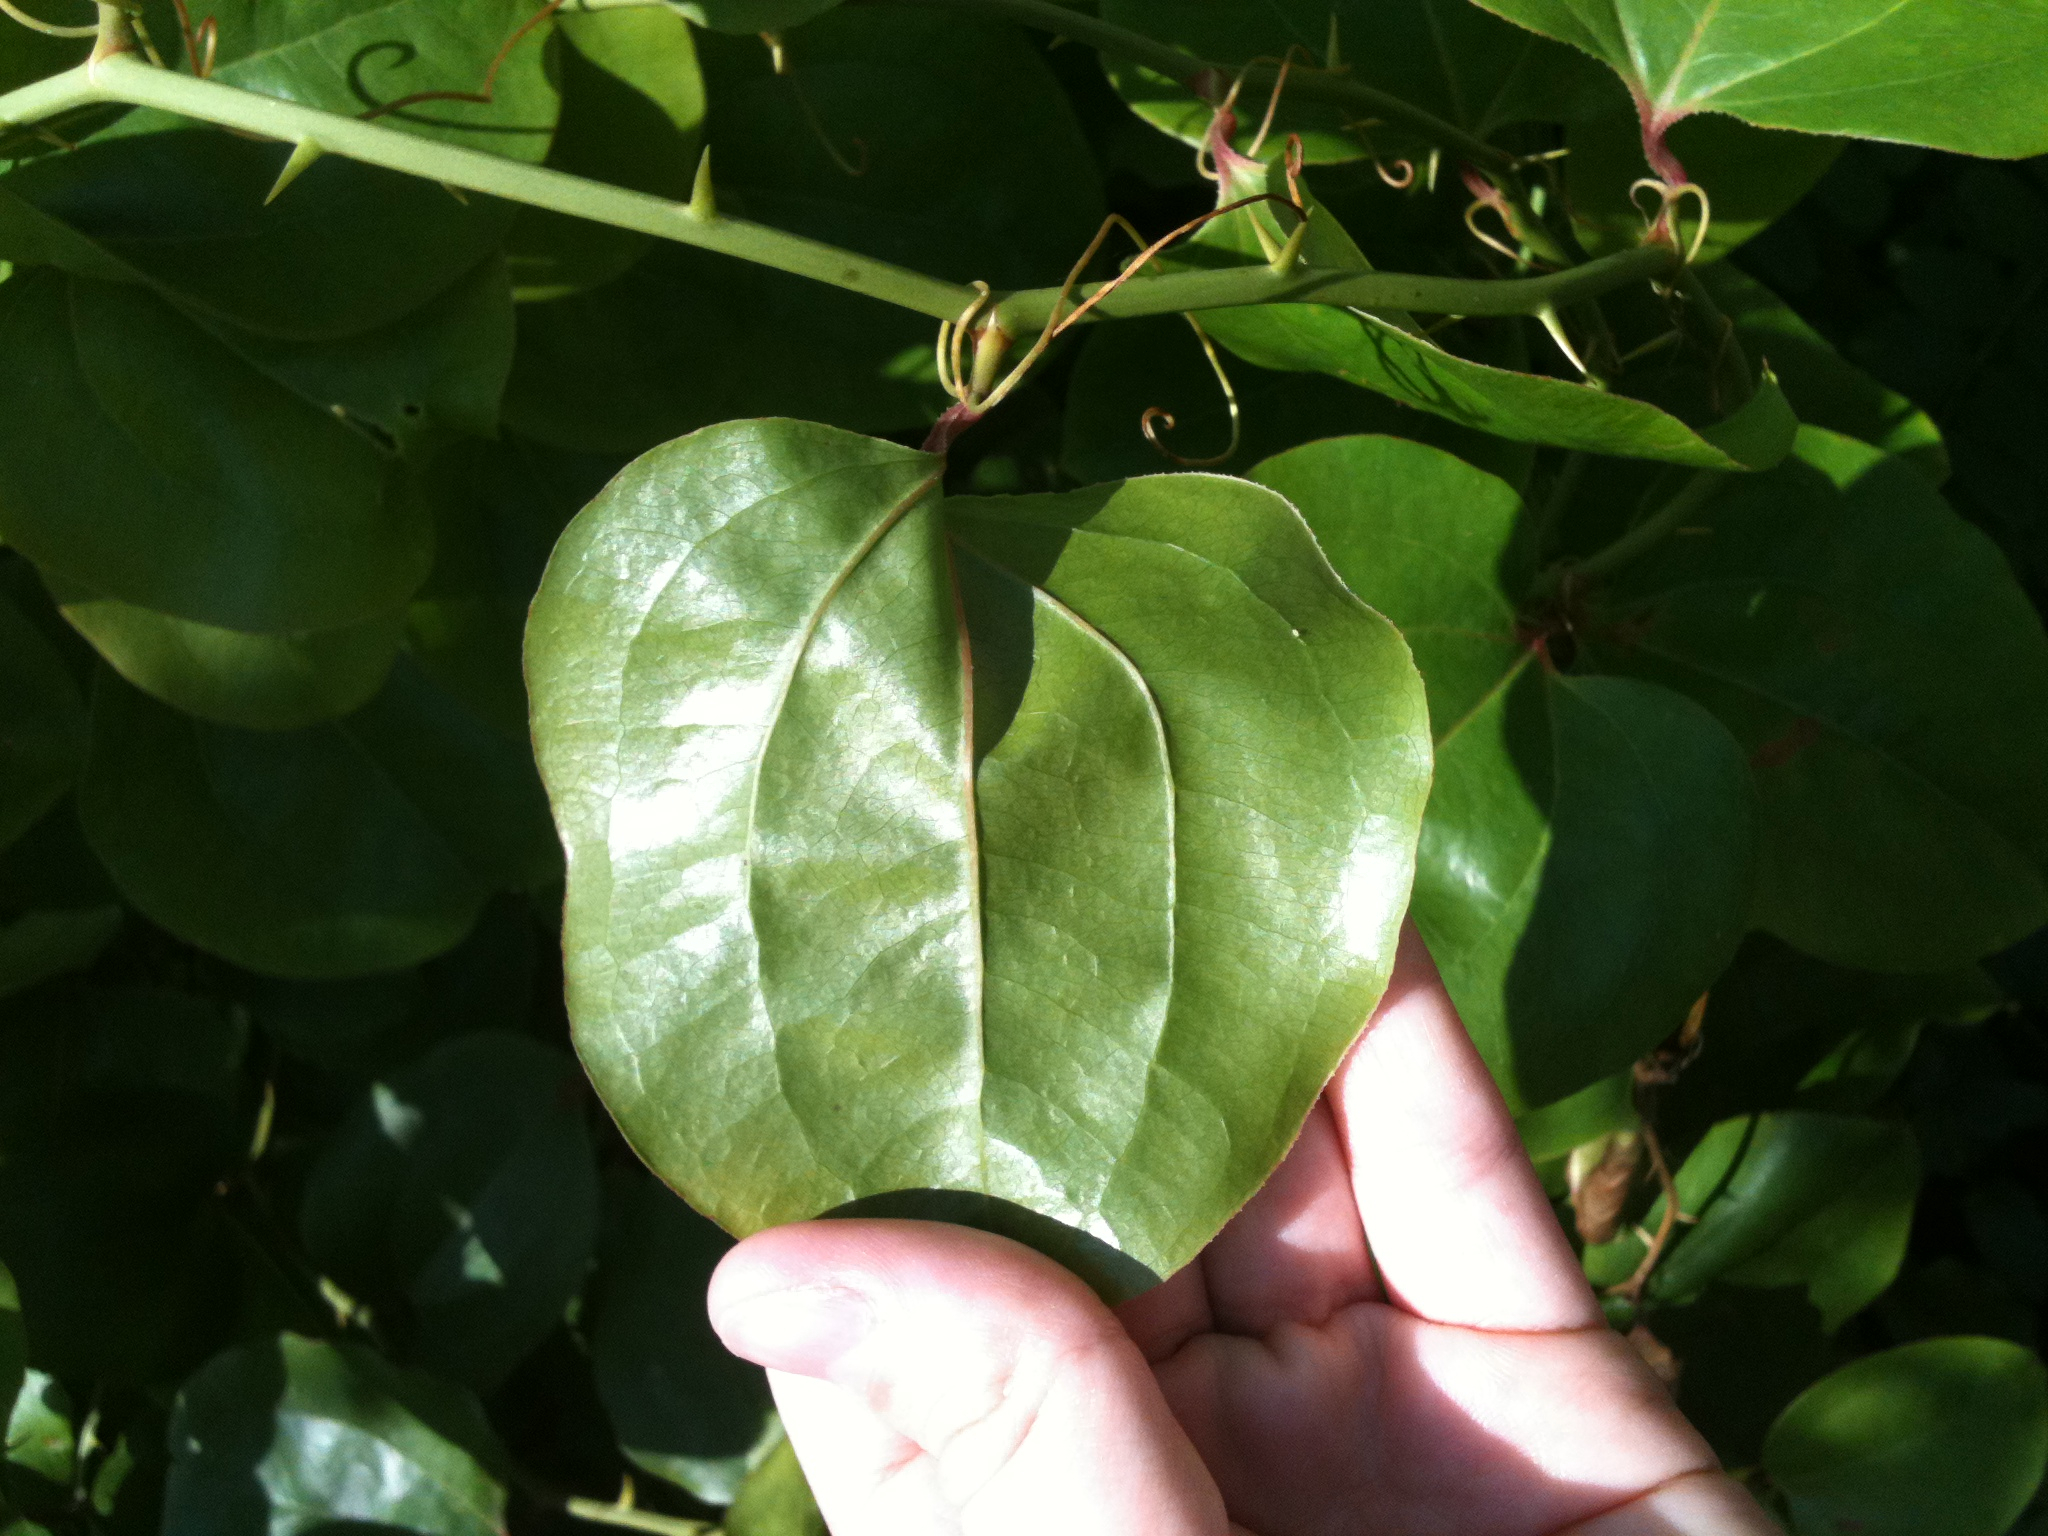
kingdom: Plantae
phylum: Tracheophyta
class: Liliopsida
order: Liliales
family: Smilacaceae
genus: Smilax
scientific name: Smilax rotundifolia
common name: Bullbriar
